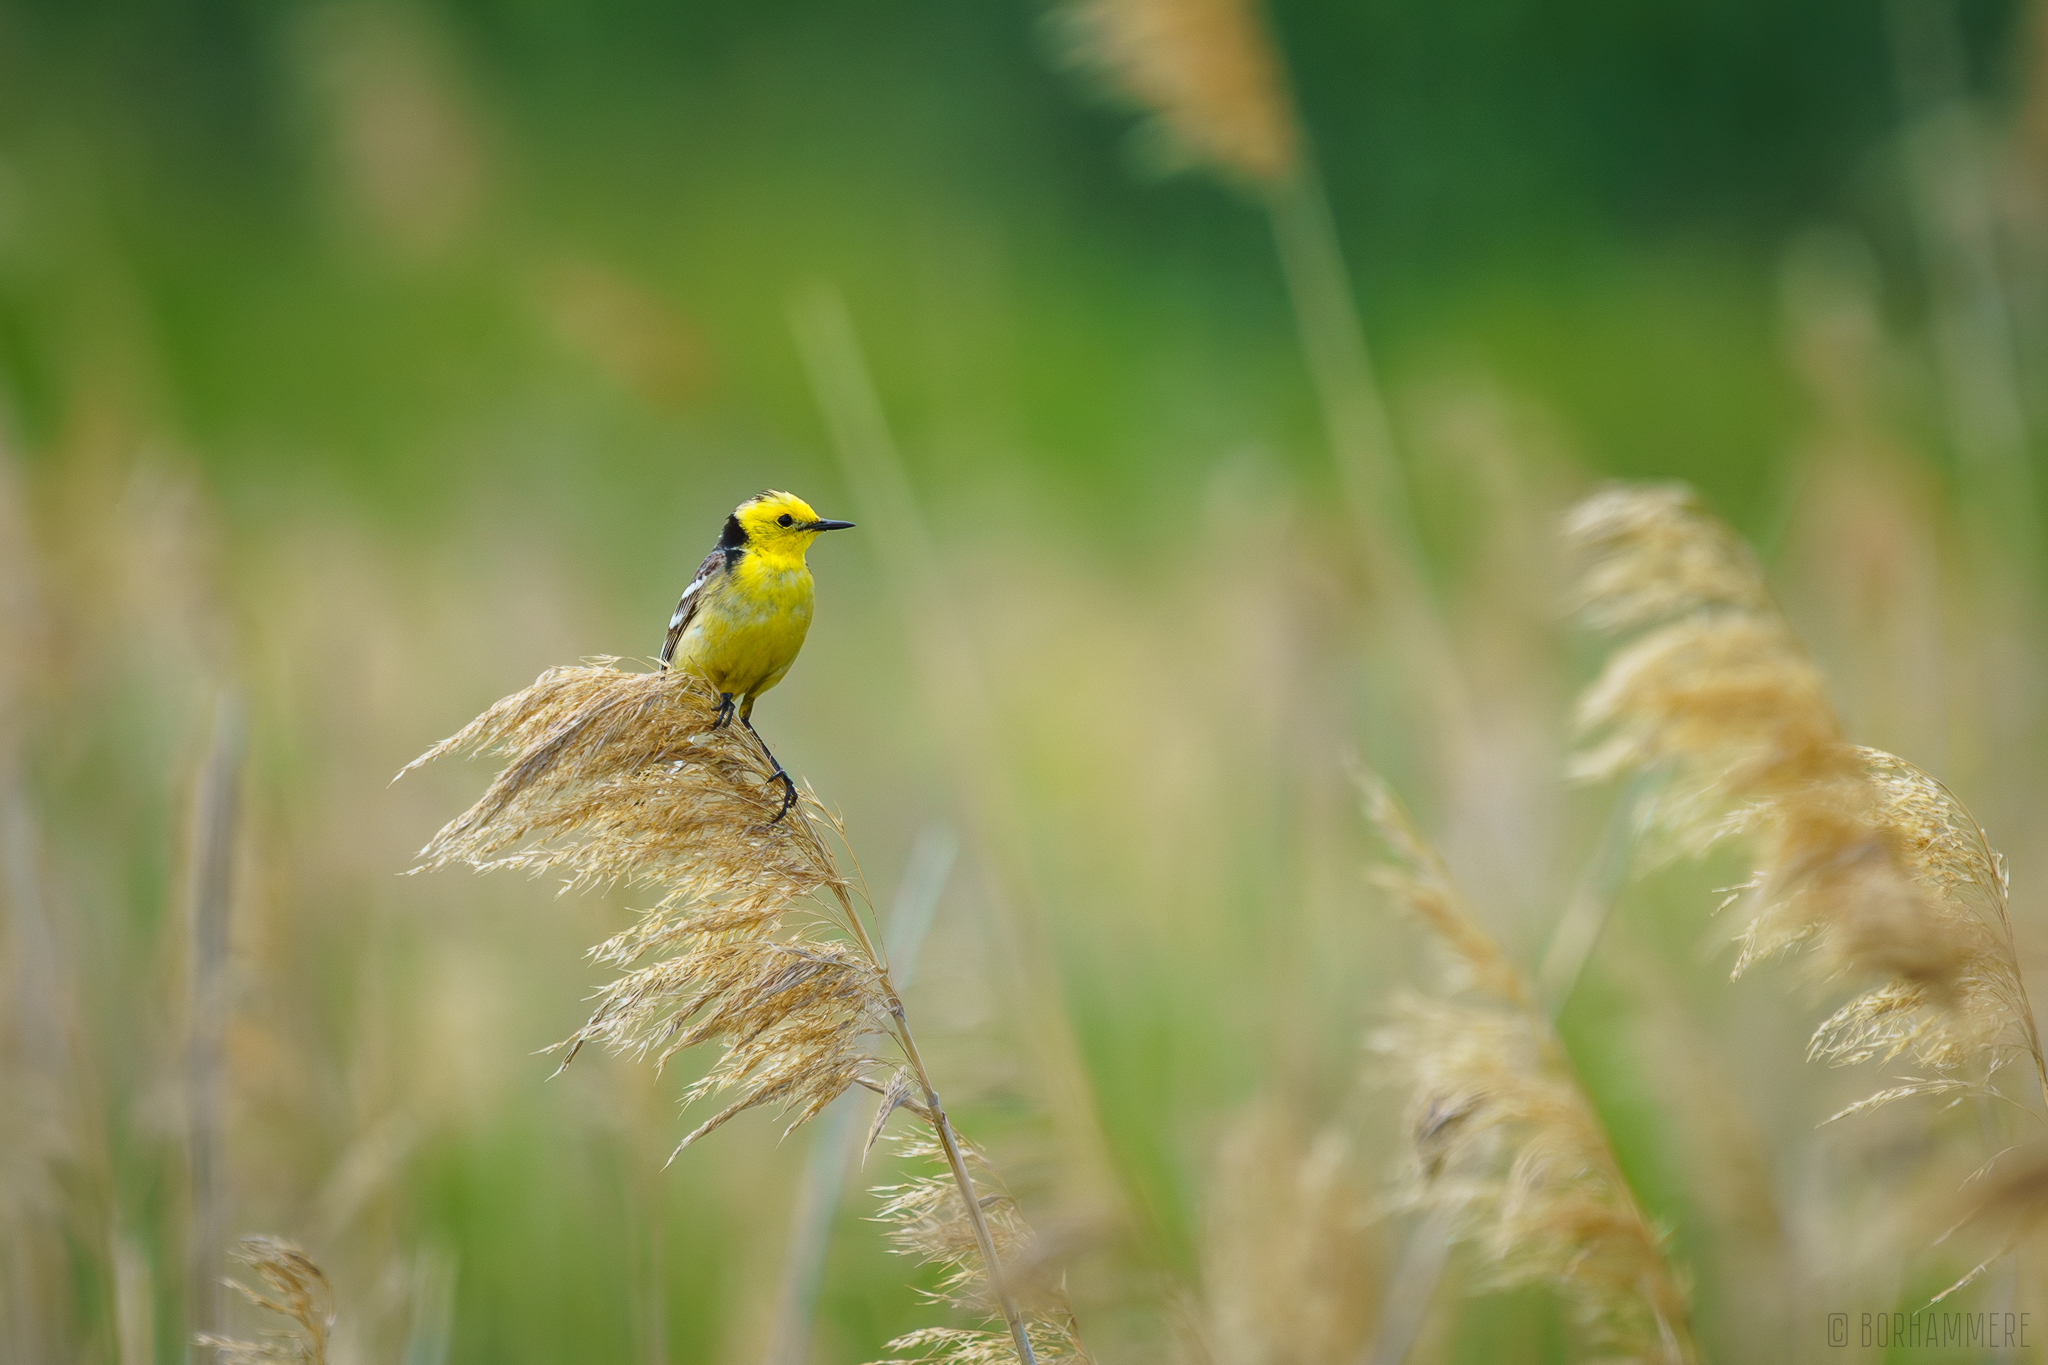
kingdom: Animalia
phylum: Chordata
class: Aves
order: Passeriformes
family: Motacillidae
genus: Motacilla
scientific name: Motacilla citreola
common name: Citrine wagtail
